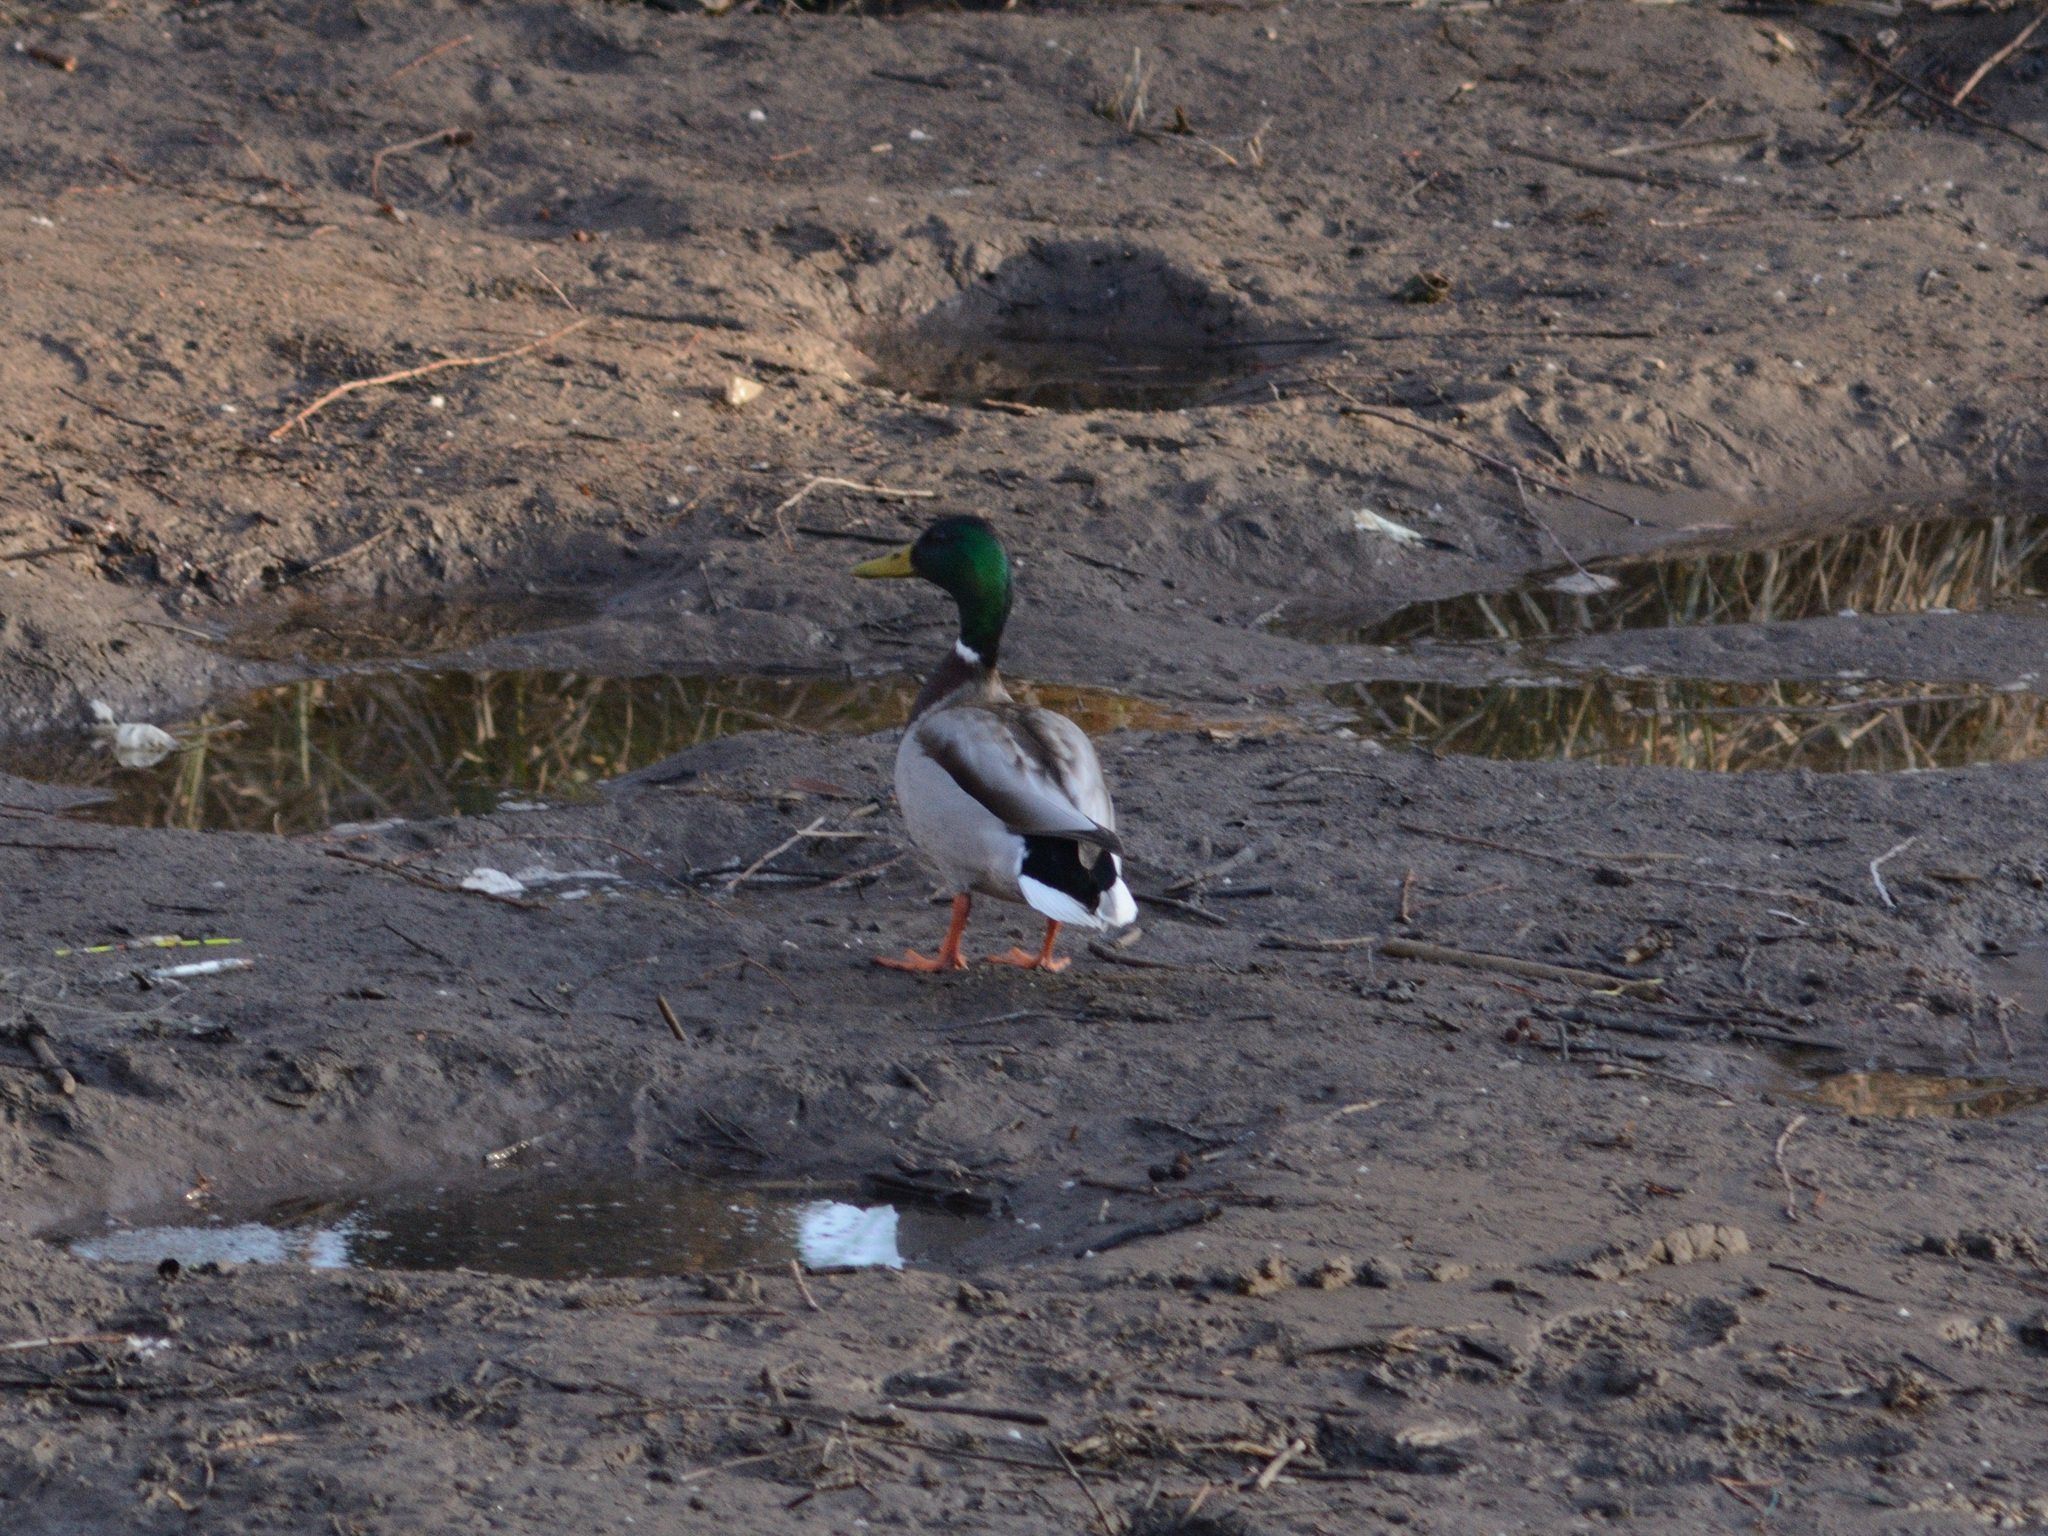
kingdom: Animalia
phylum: Chordata
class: Aves
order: Anseriformes
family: Anatidae
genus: Anas
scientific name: Anas platyrhynchos
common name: Mallard
